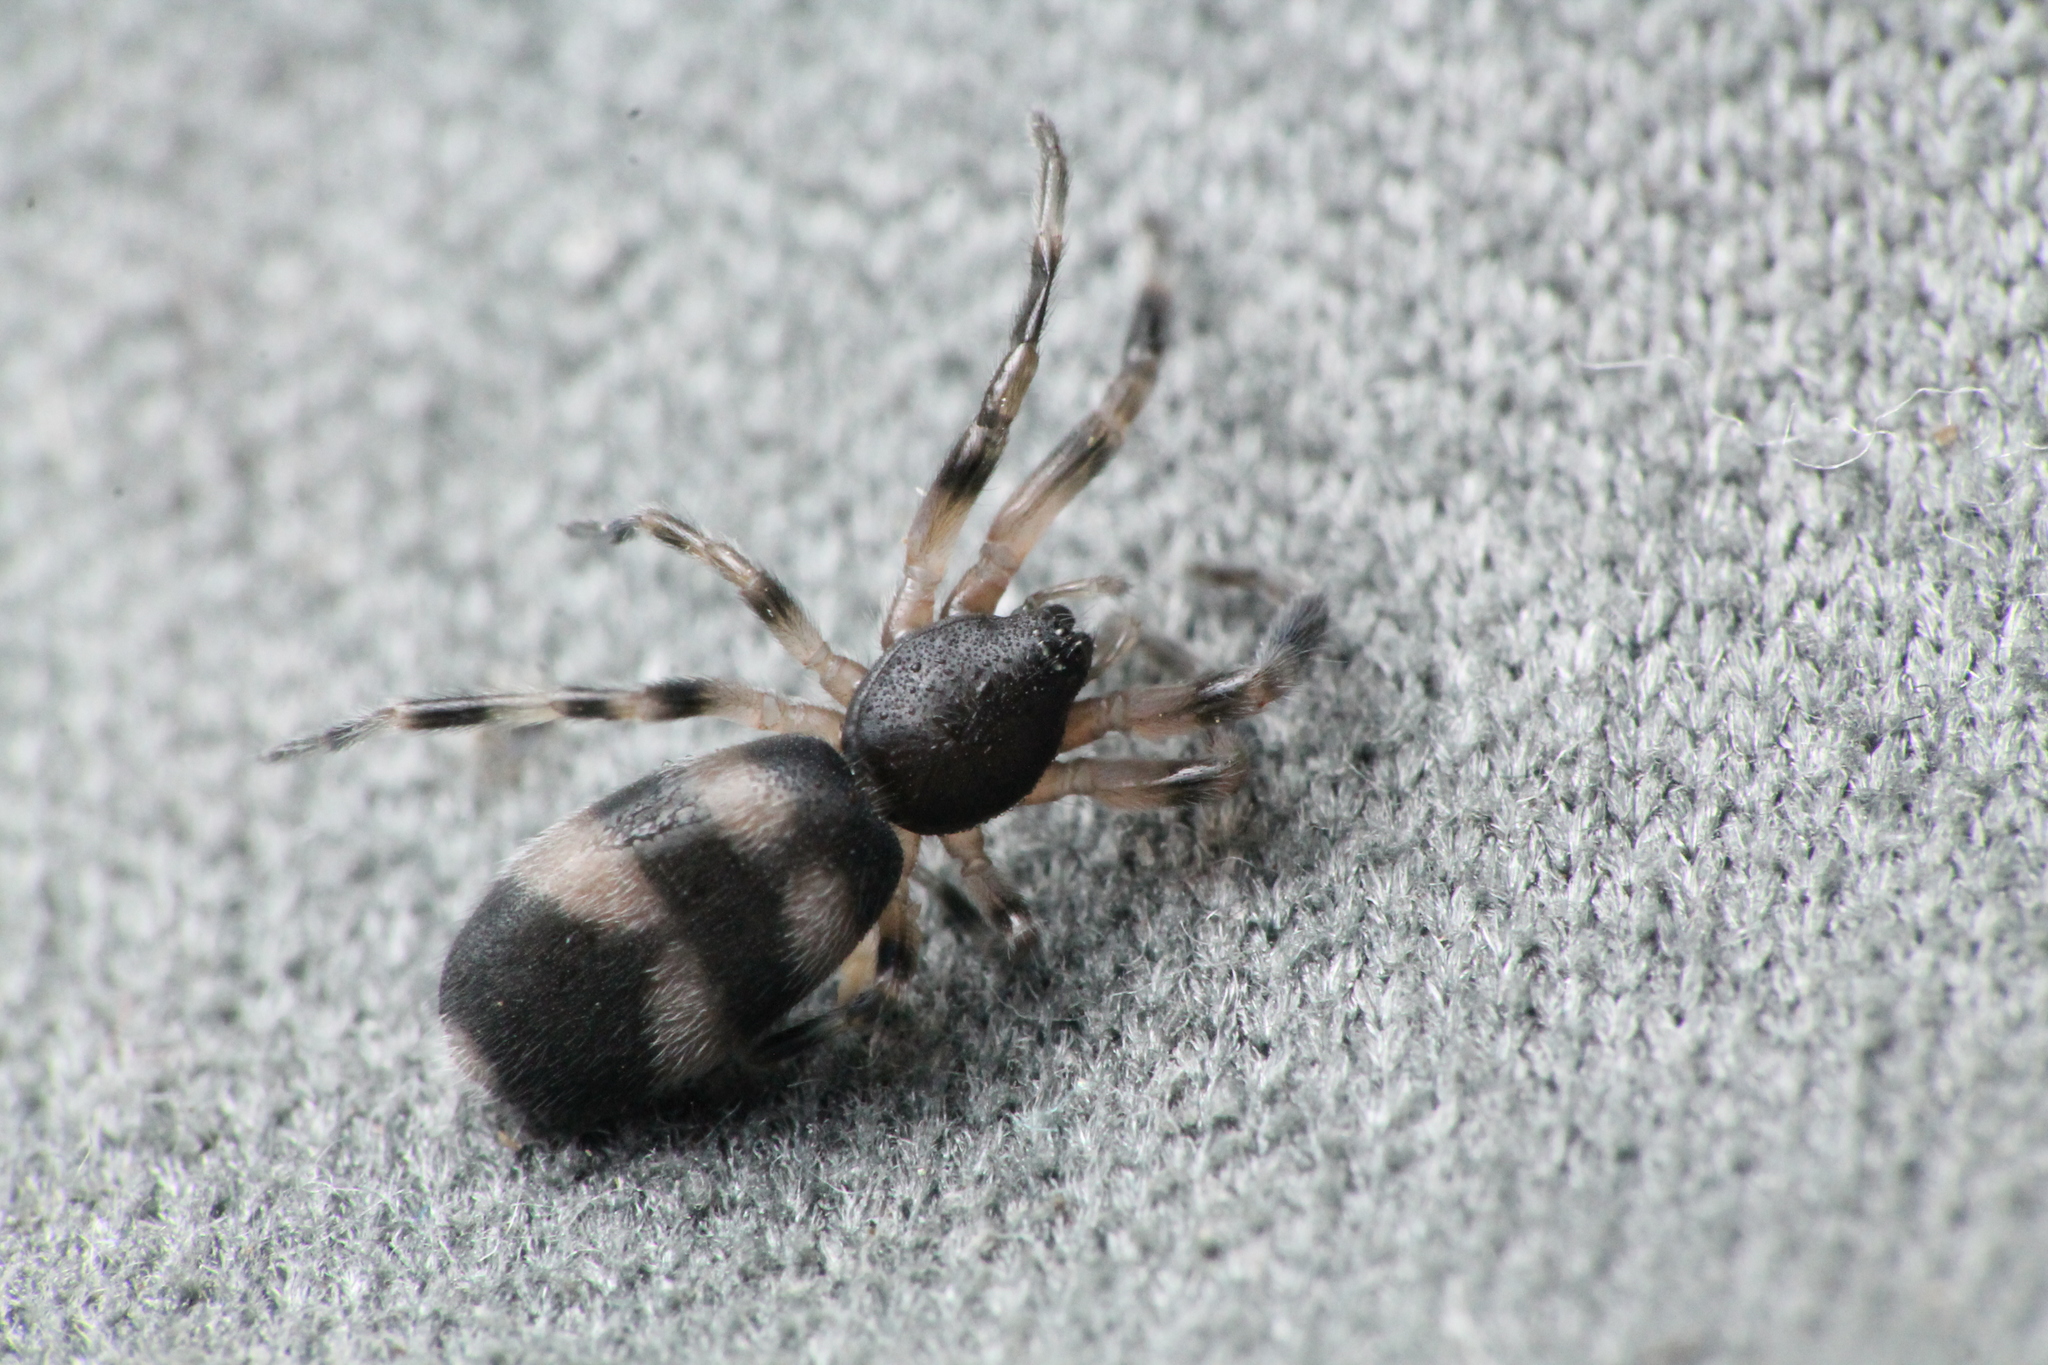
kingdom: Animalia
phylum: Arthropoda
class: Arachnida
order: Araneae
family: Lamponidae
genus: Lampona
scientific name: Lampona murina
